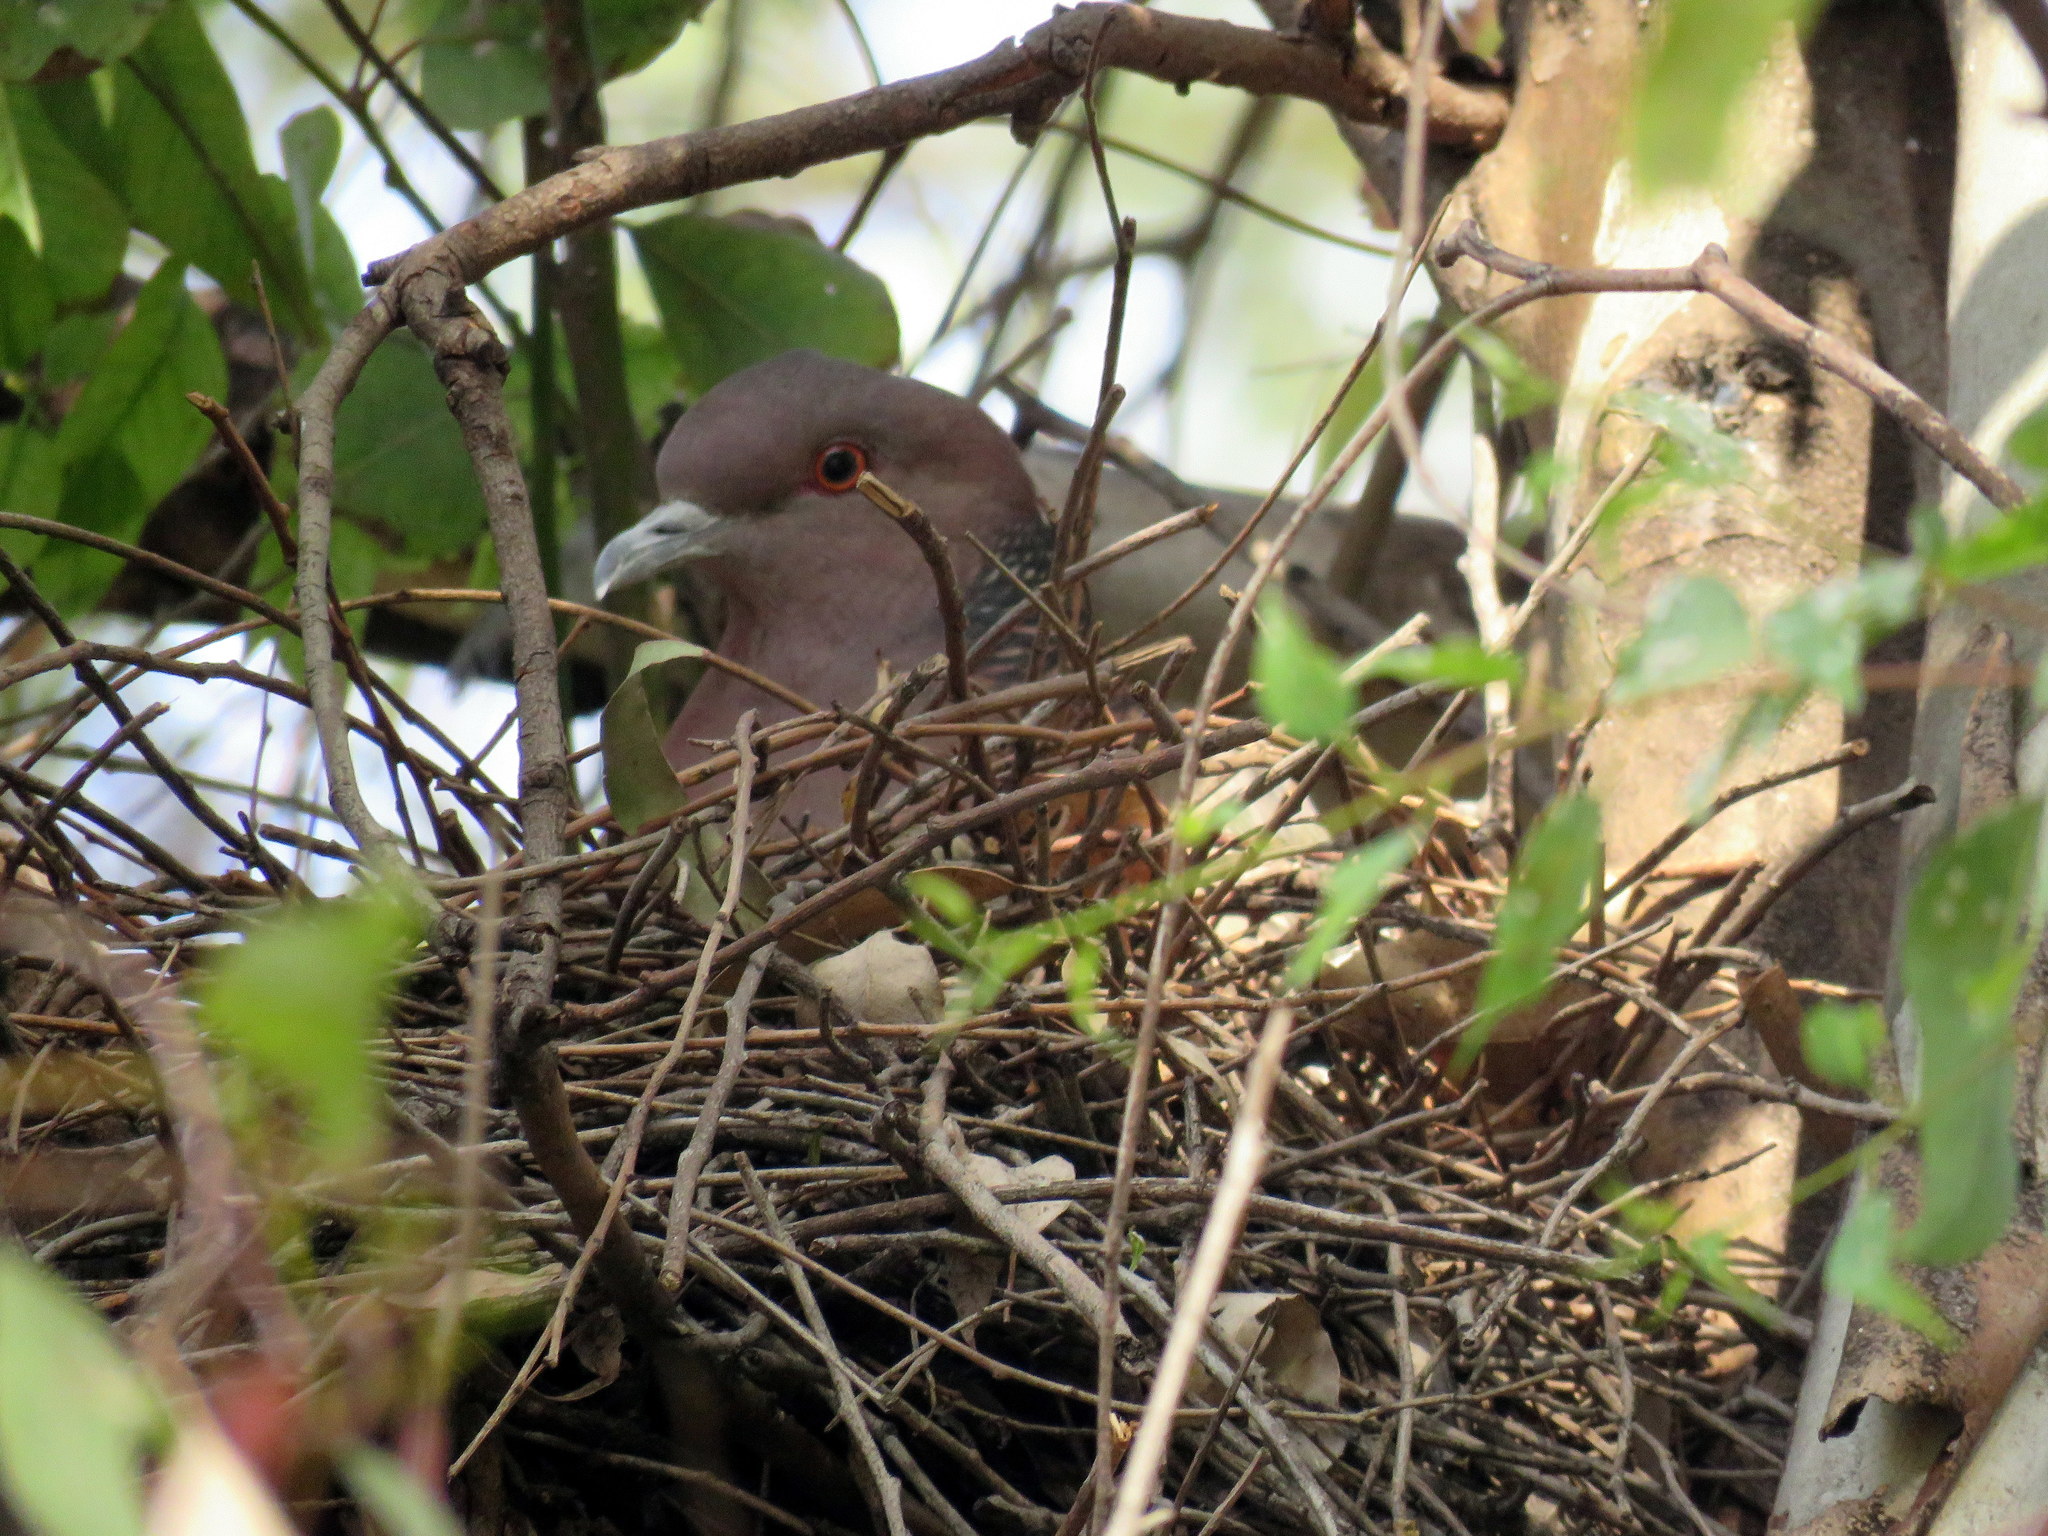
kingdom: Animalia
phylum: Chordata
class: Aves
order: Columbiformes
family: Columbidae
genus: Patagioenas
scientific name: Patagioenas picazuro
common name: Picazuro pigeon
